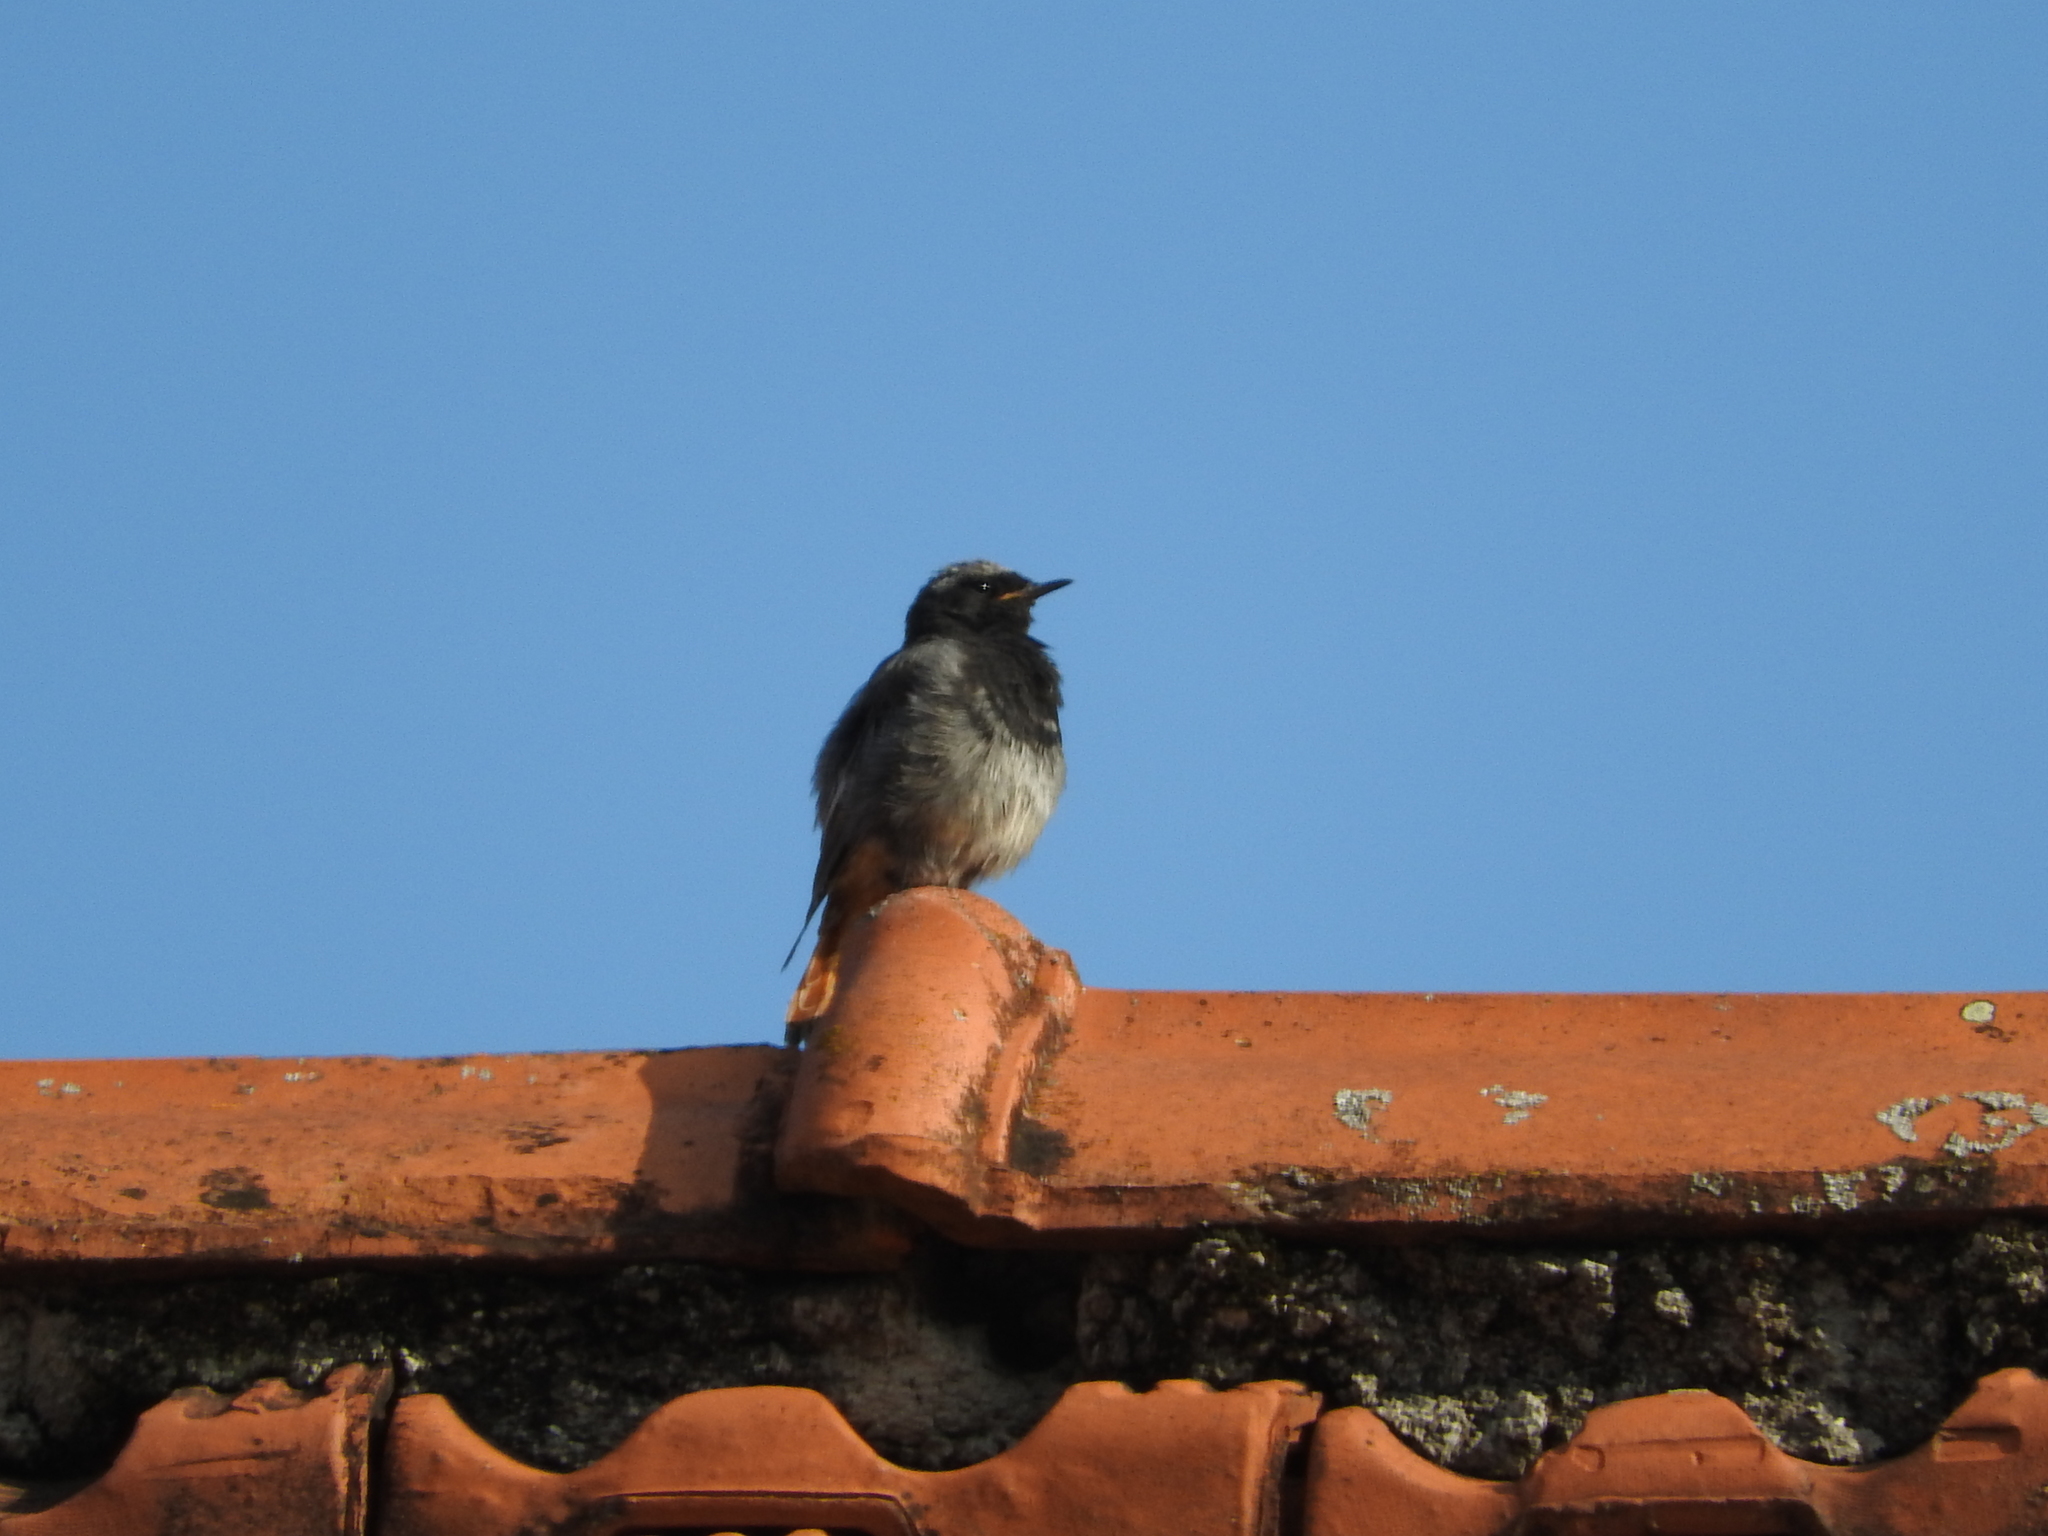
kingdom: Animalia
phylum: Chordata
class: Aves
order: Passeriformes
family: Muscicapidae
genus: Phoenicurus
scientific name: Phoenicurus ochruros
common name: Black redstart
